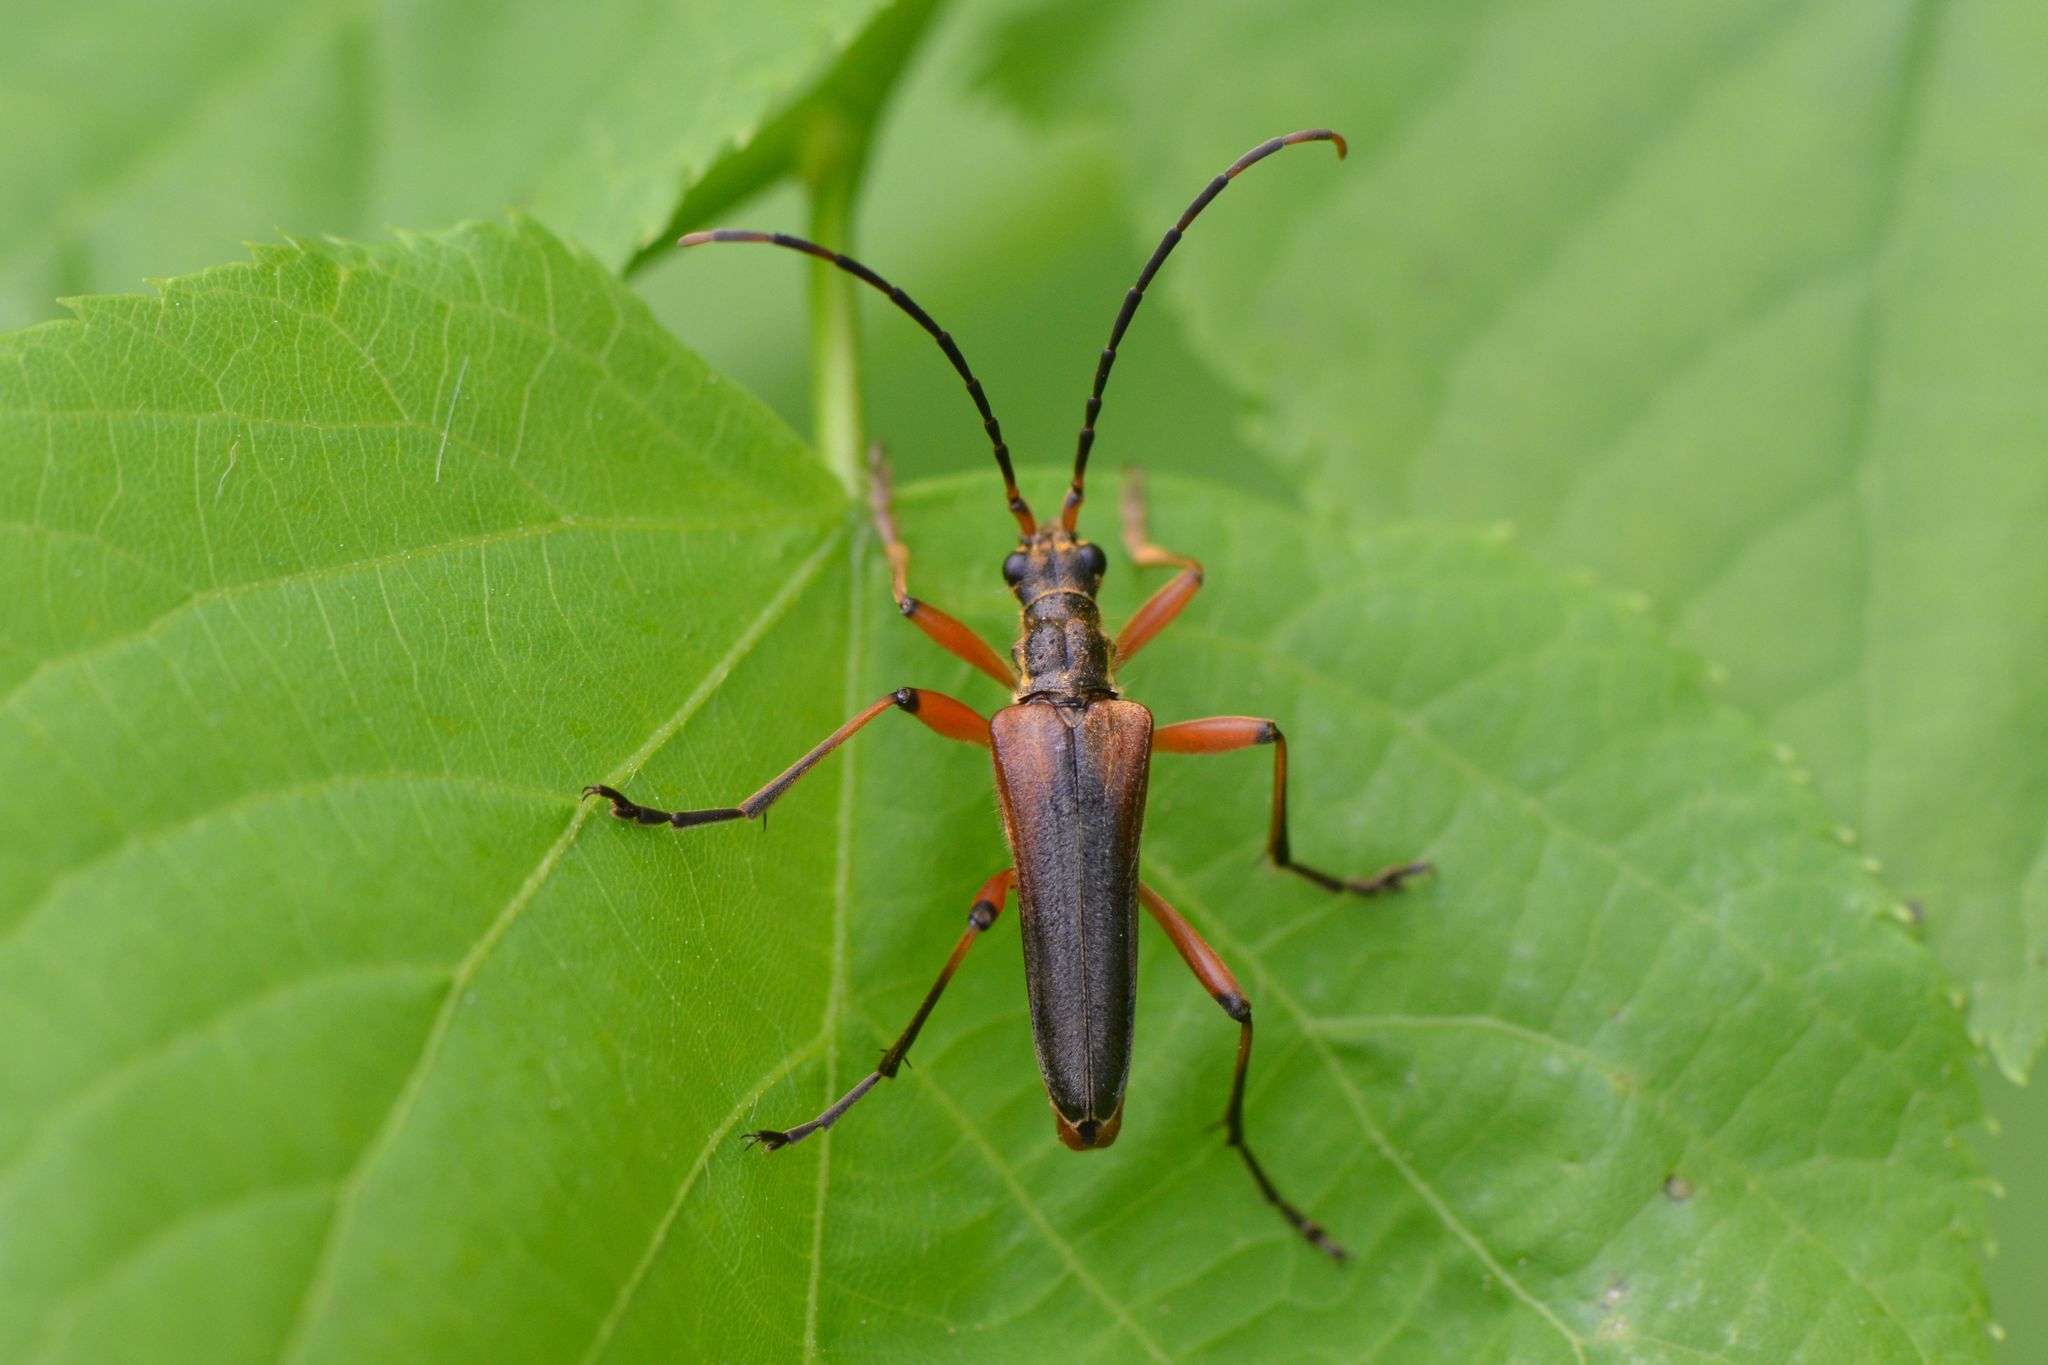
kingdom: Animalia
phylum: Arthropoda
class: Insecta
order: Coleoptera
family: Cerambycidae
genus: Stenocorus
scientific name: Stenocorus meridianus
